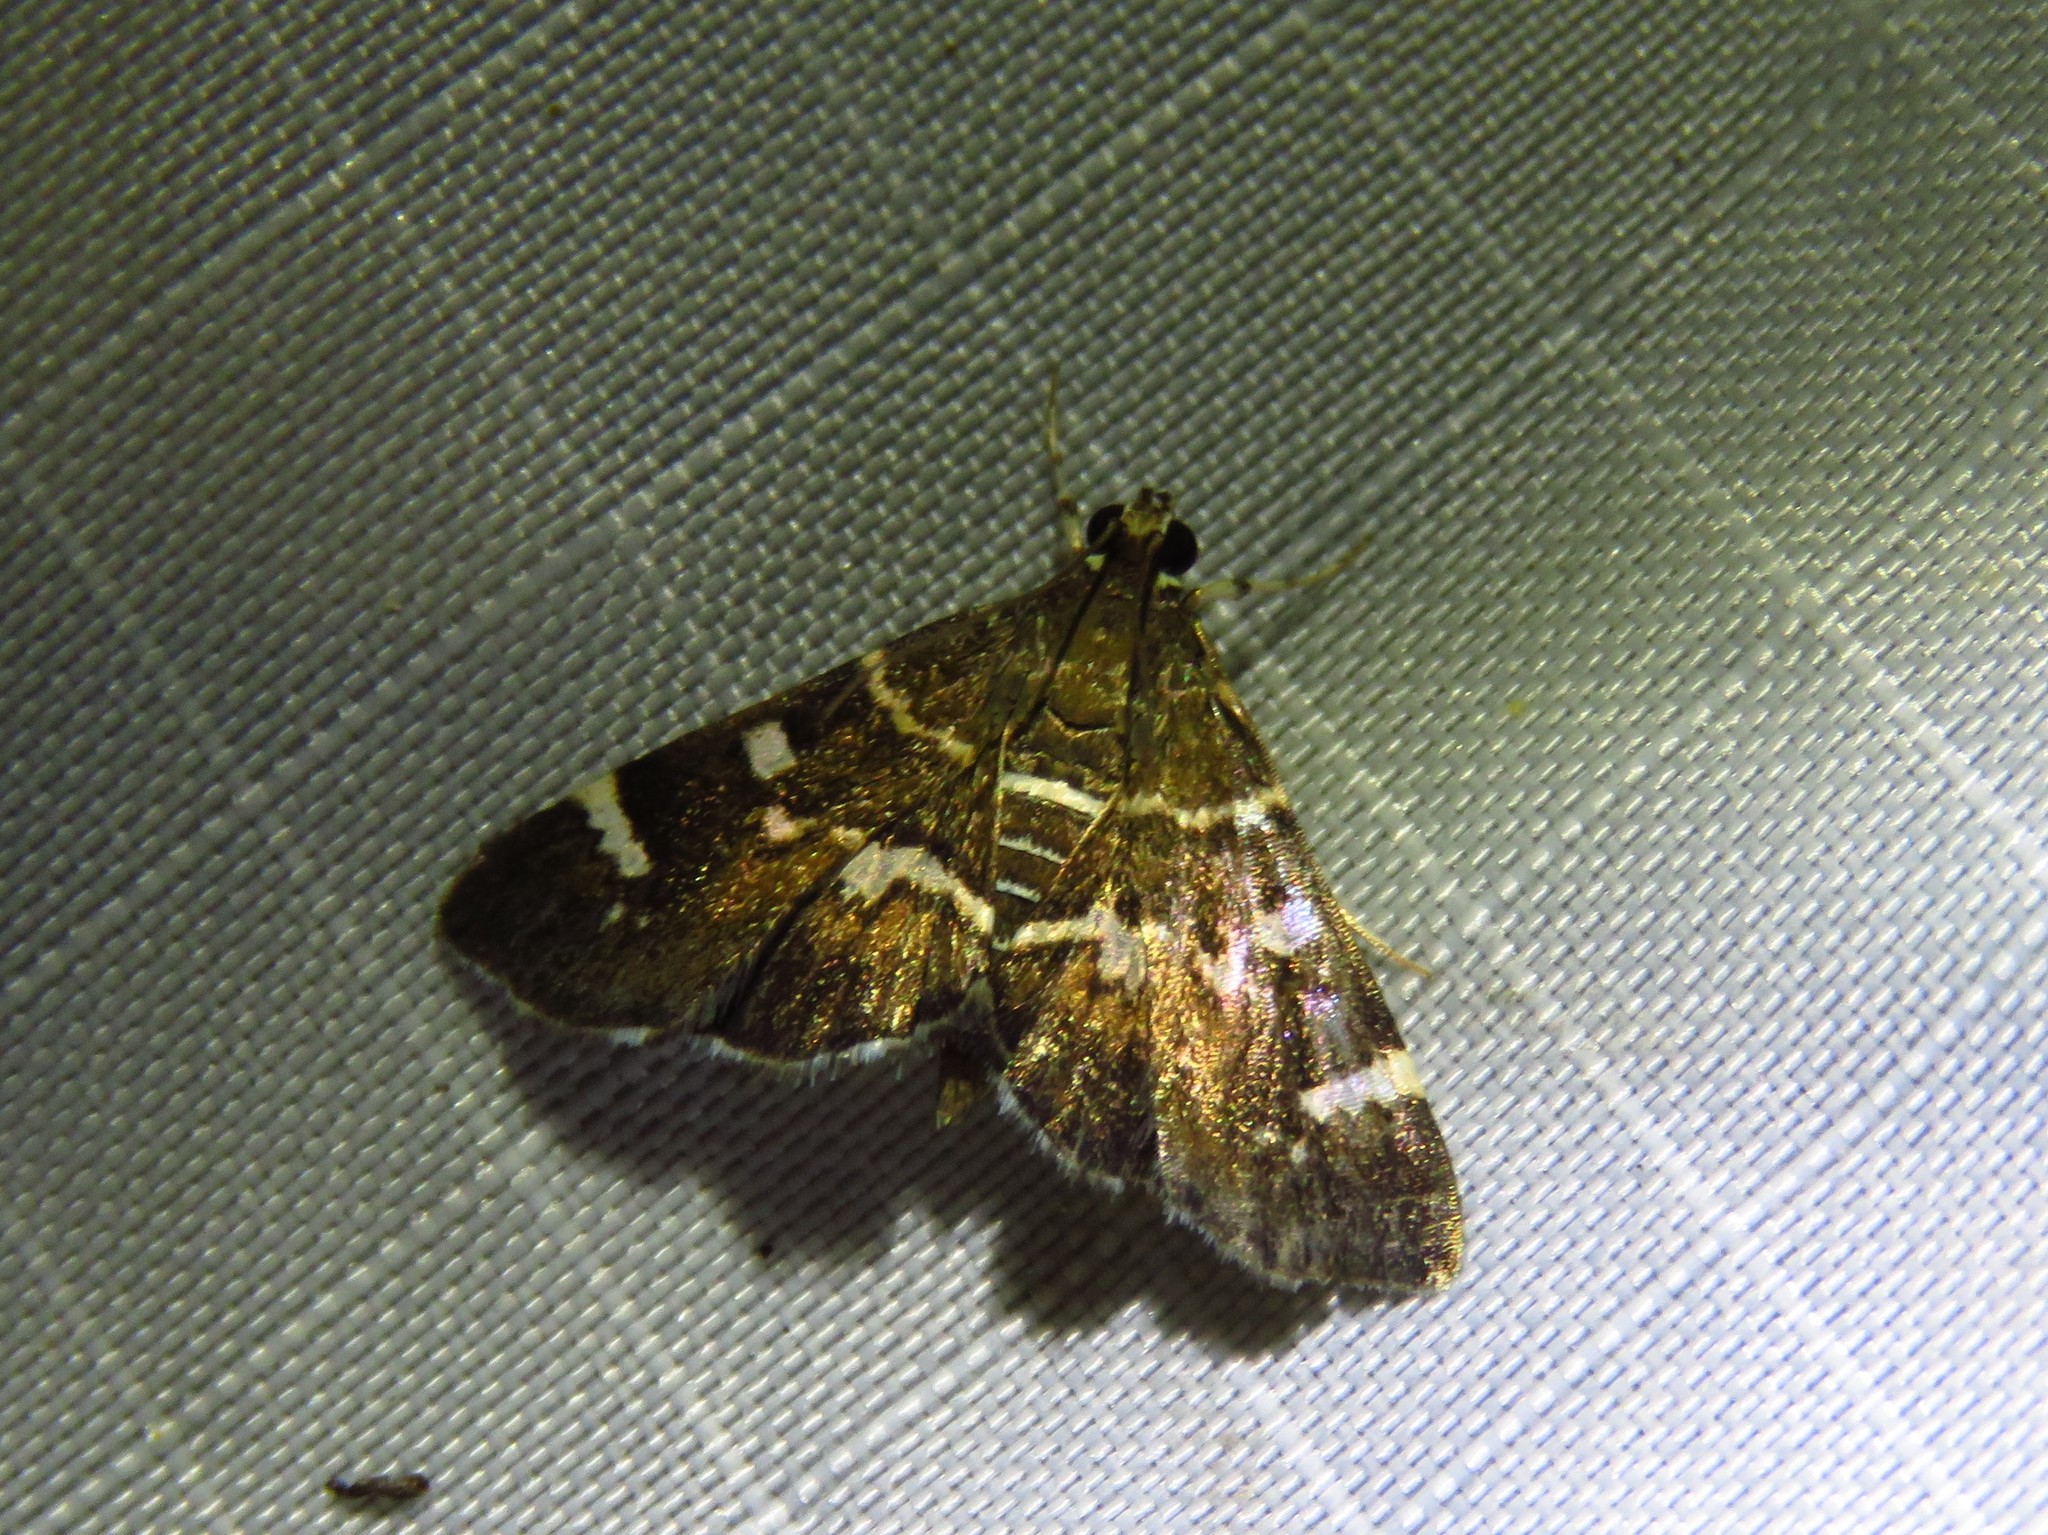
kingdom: Animalia
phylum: Arthropoda
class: Insecta
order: Lepidoptera
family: Crambidae
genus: Hymenia
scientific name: Hymenia perspectalis
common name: Spotted beet webworm
